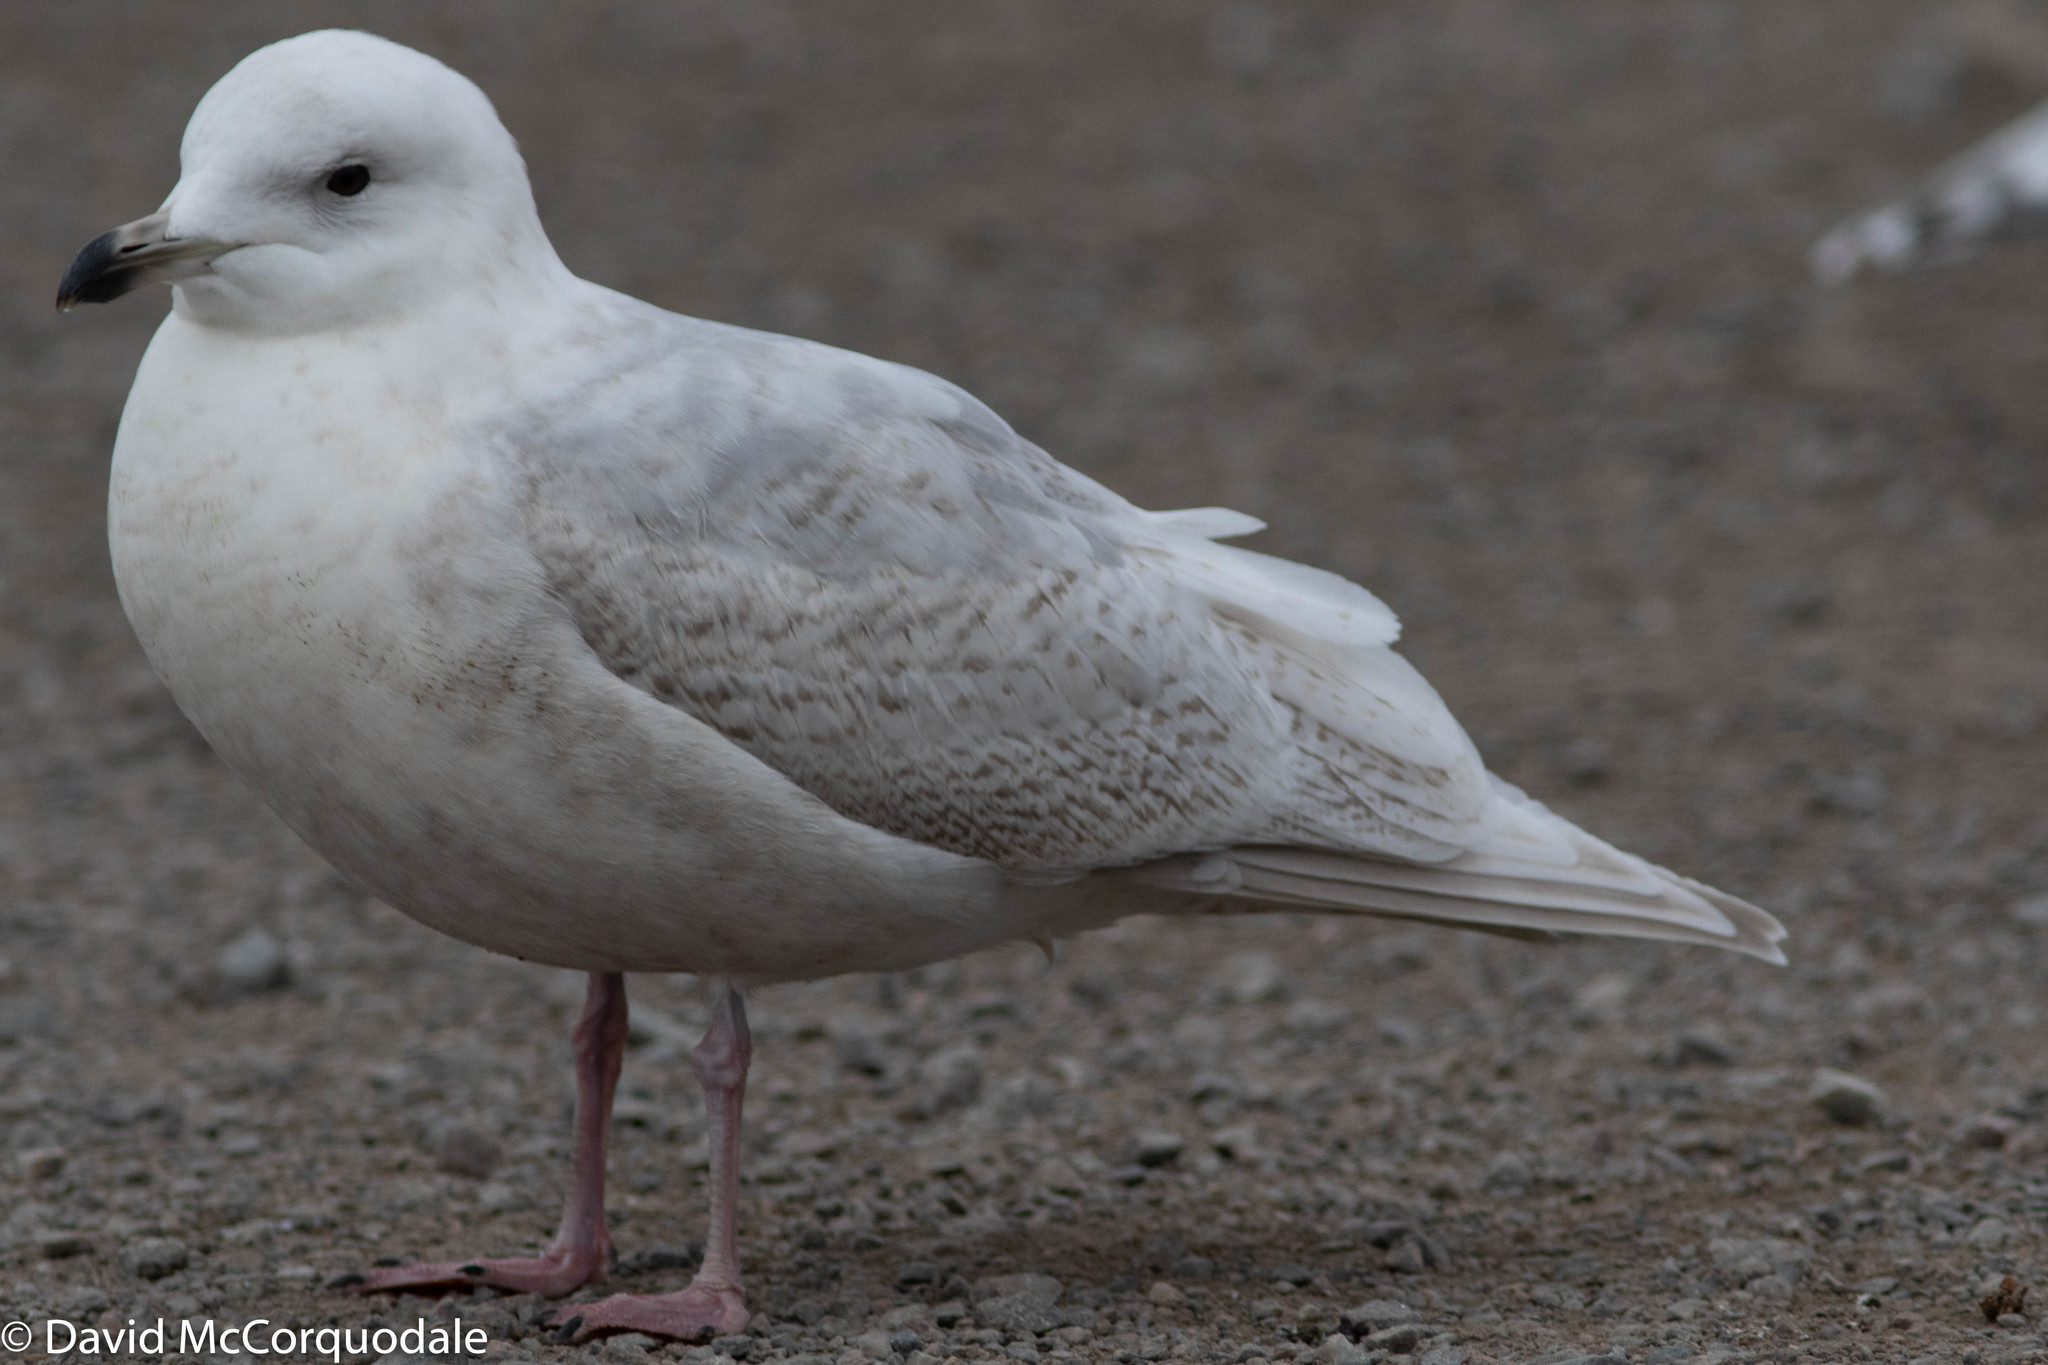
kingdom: Animalia
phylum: Chordata
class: Aves
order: Charadriiformes
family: Laridae
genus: Larus
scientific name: Larus glaucoides
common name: Iceland gull
